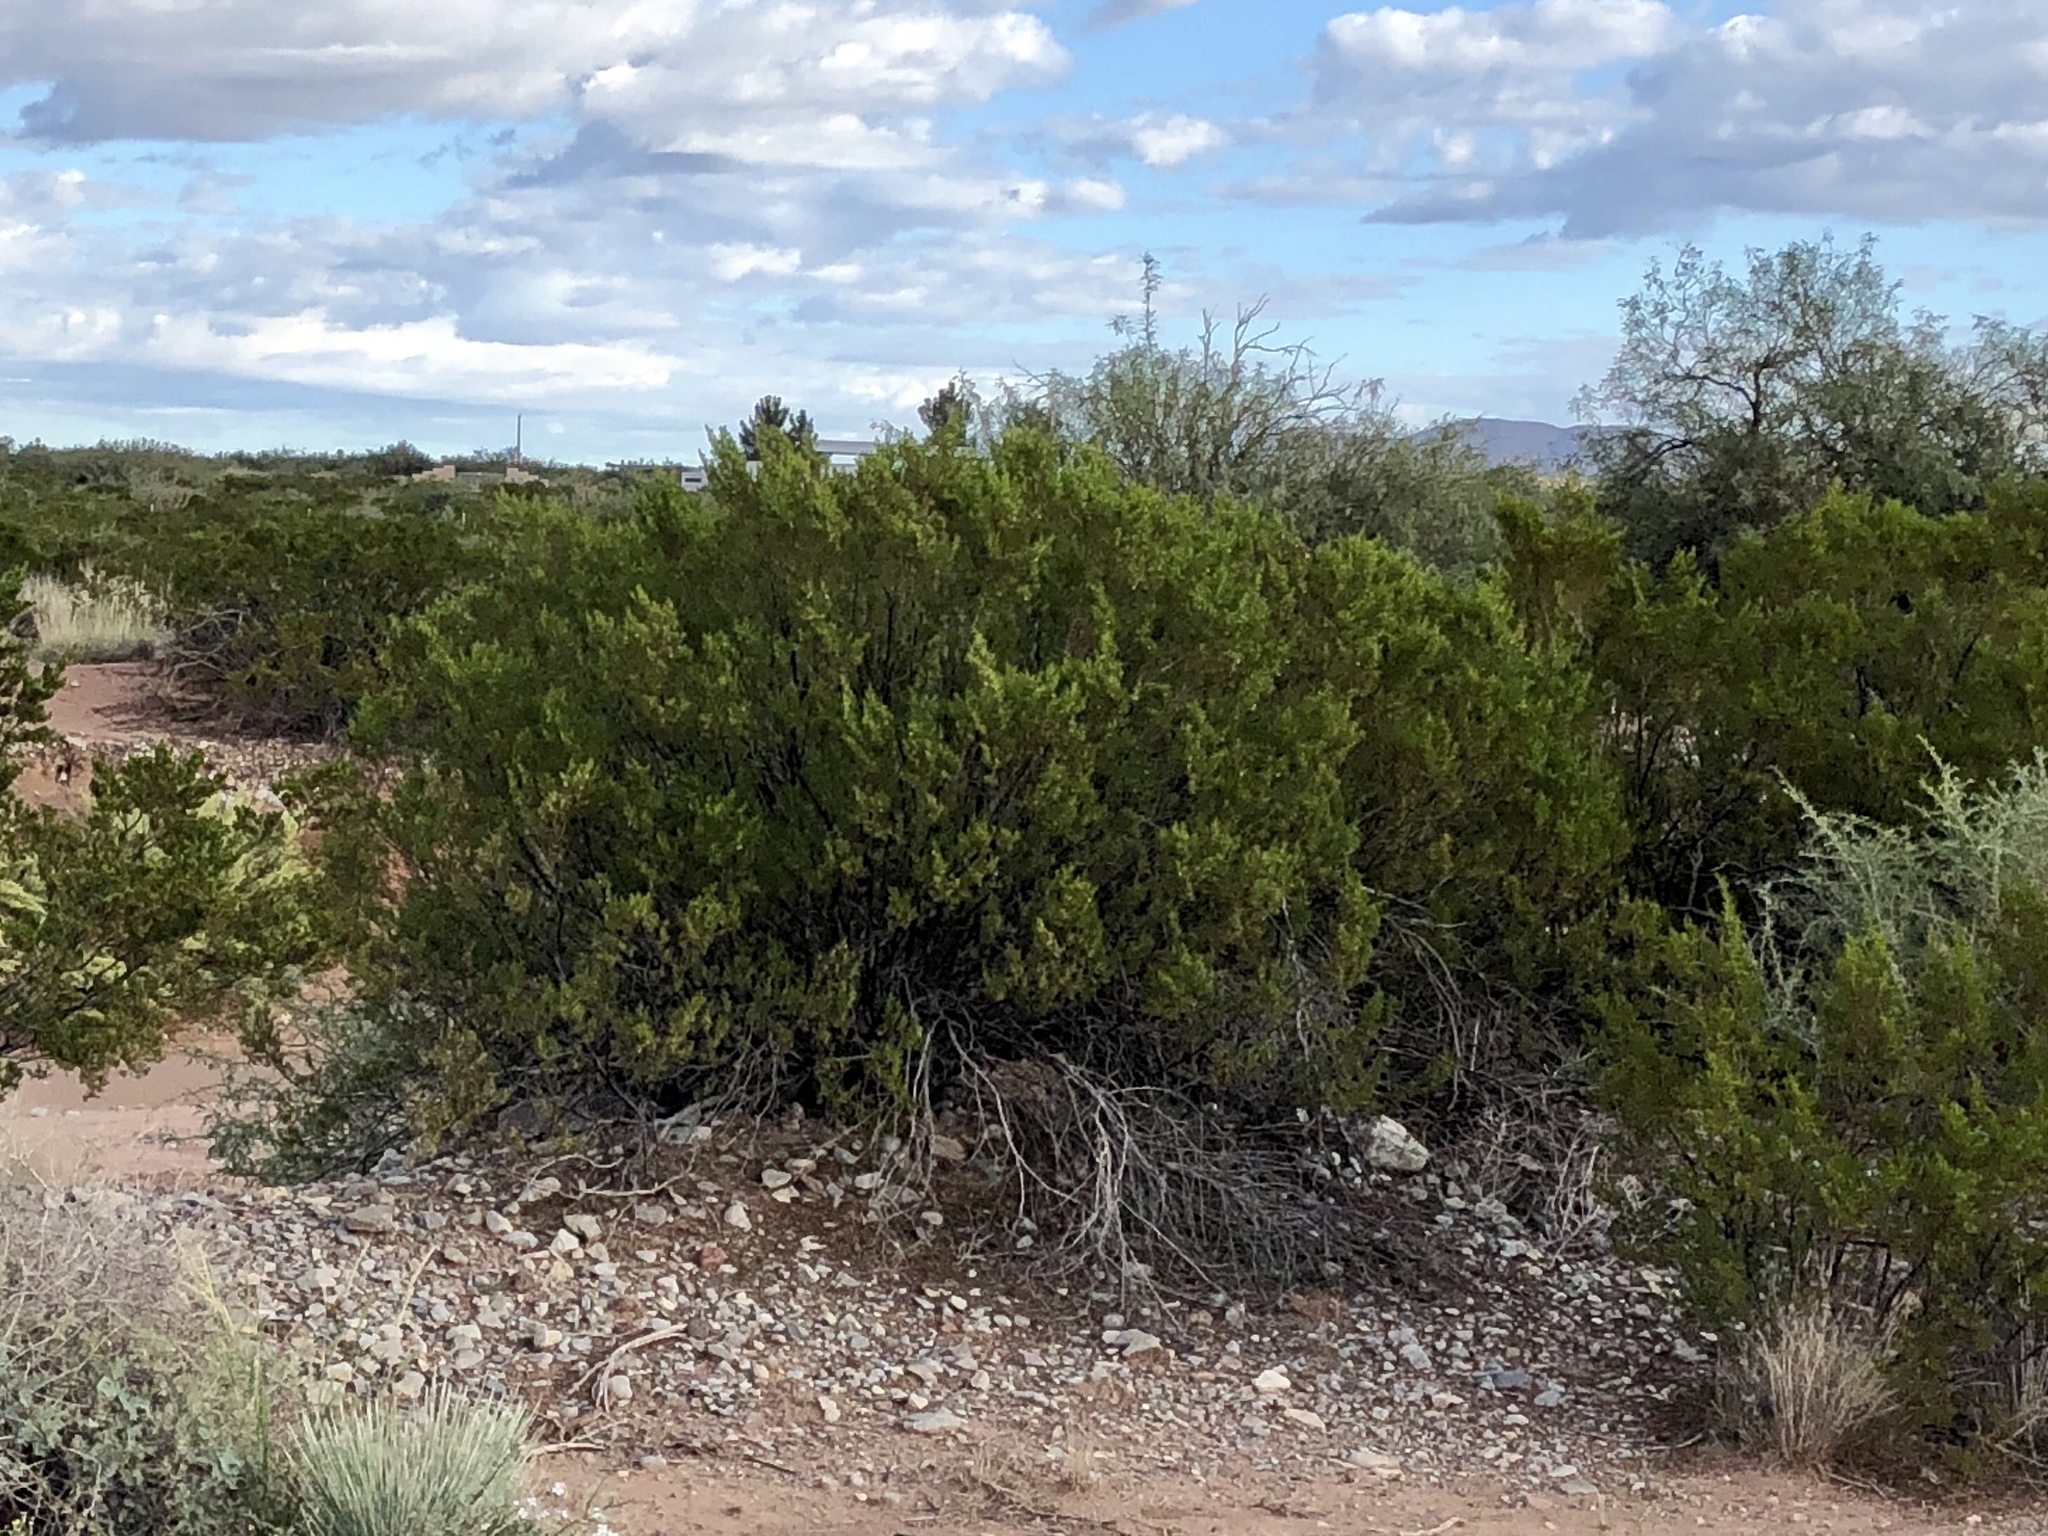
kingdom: Plantae
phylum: Tracheophyta
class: Magnoliopsida
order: Zygophyllales
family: Zygophyllaceae
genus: Larrea
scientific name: Larrea tridentata
